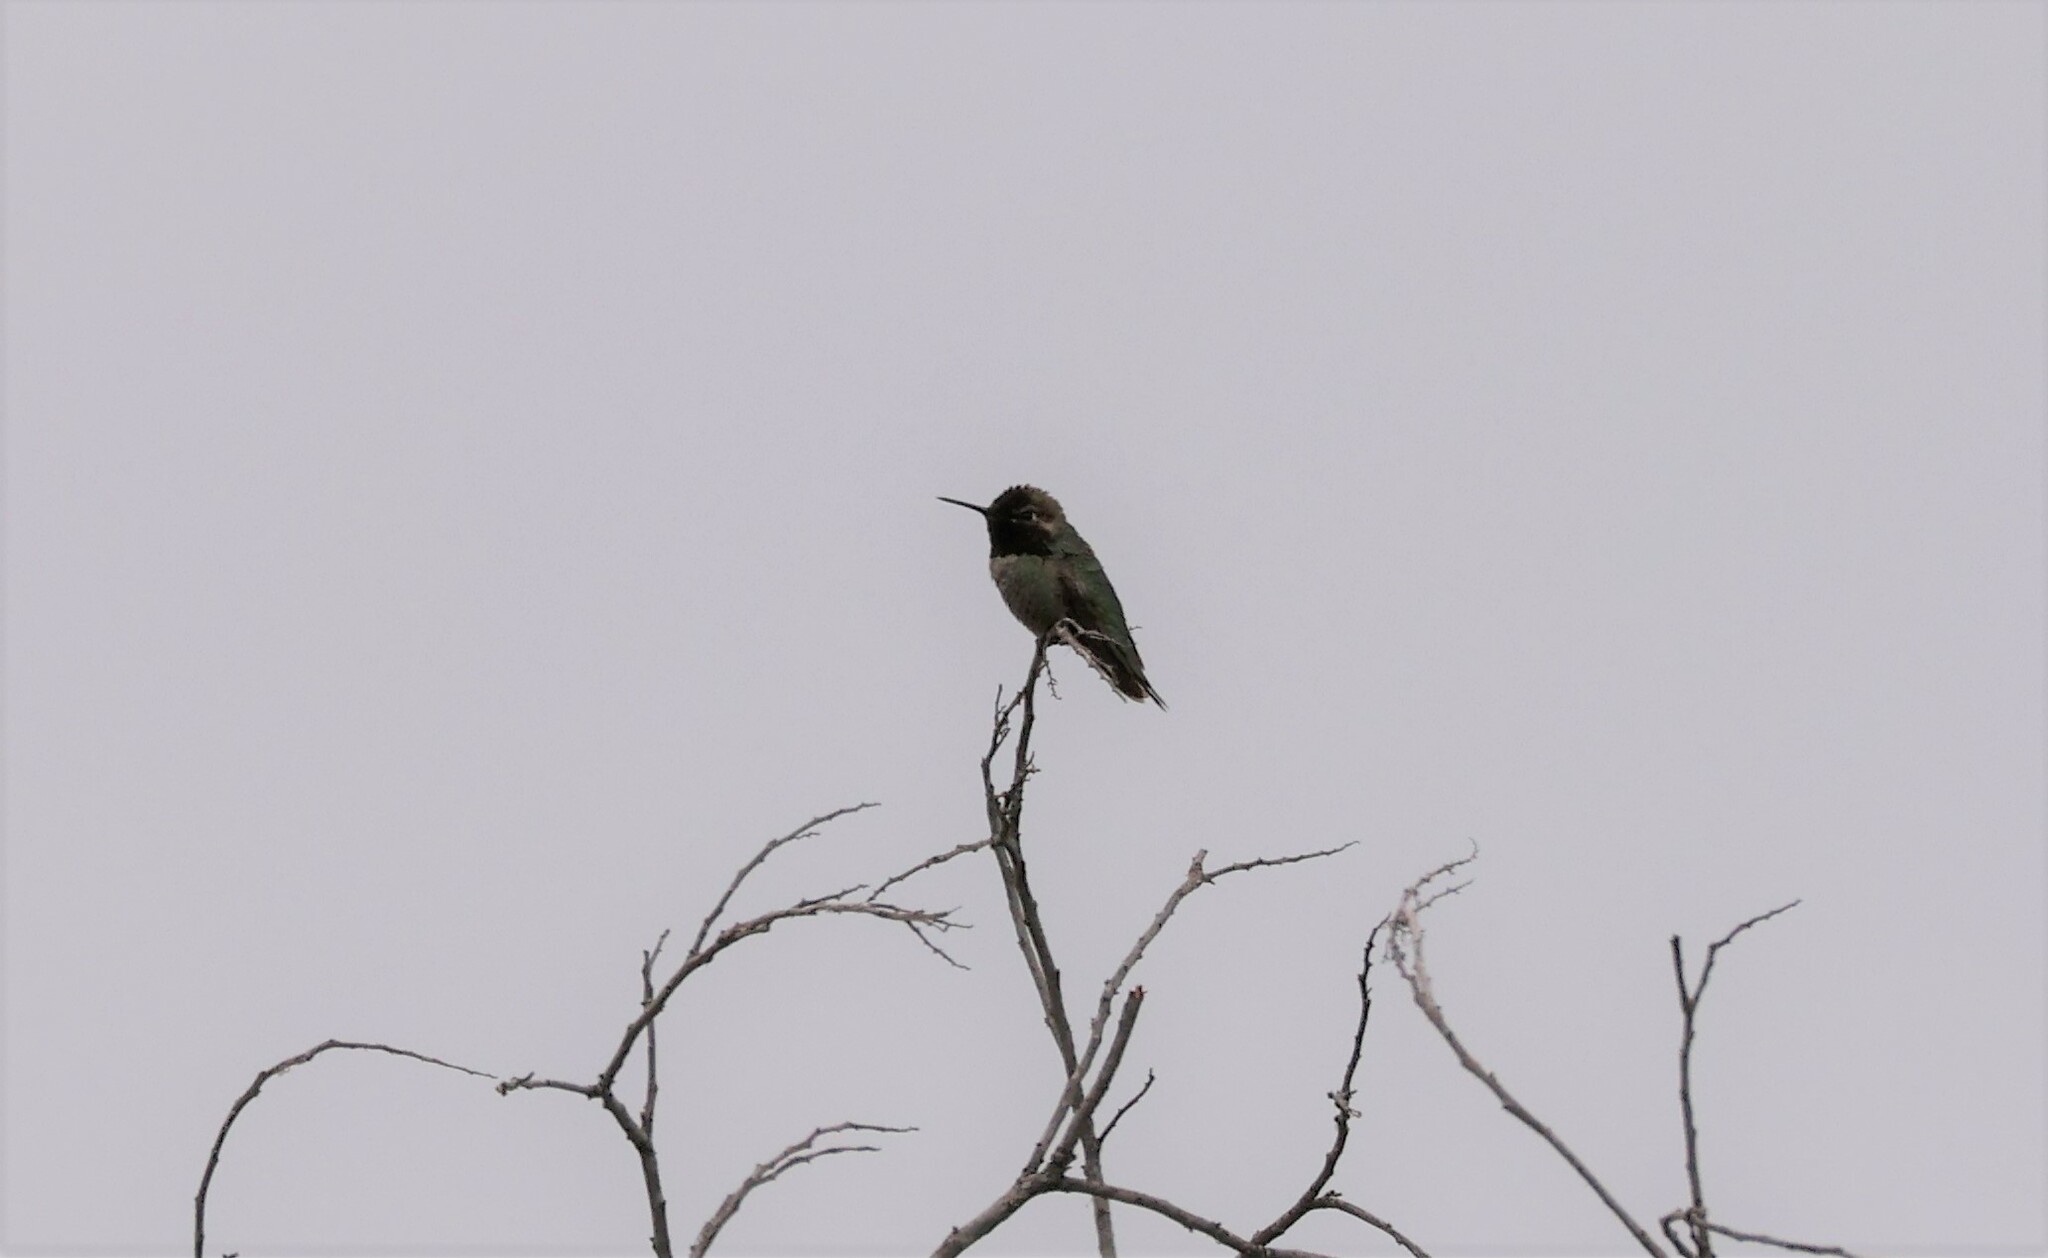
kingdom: Animalia
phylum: Chordata
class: Aves
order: Apodiformes
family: Trochilidae
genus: Calypte
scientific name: Calypte anna
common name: Anna's hummingbird
